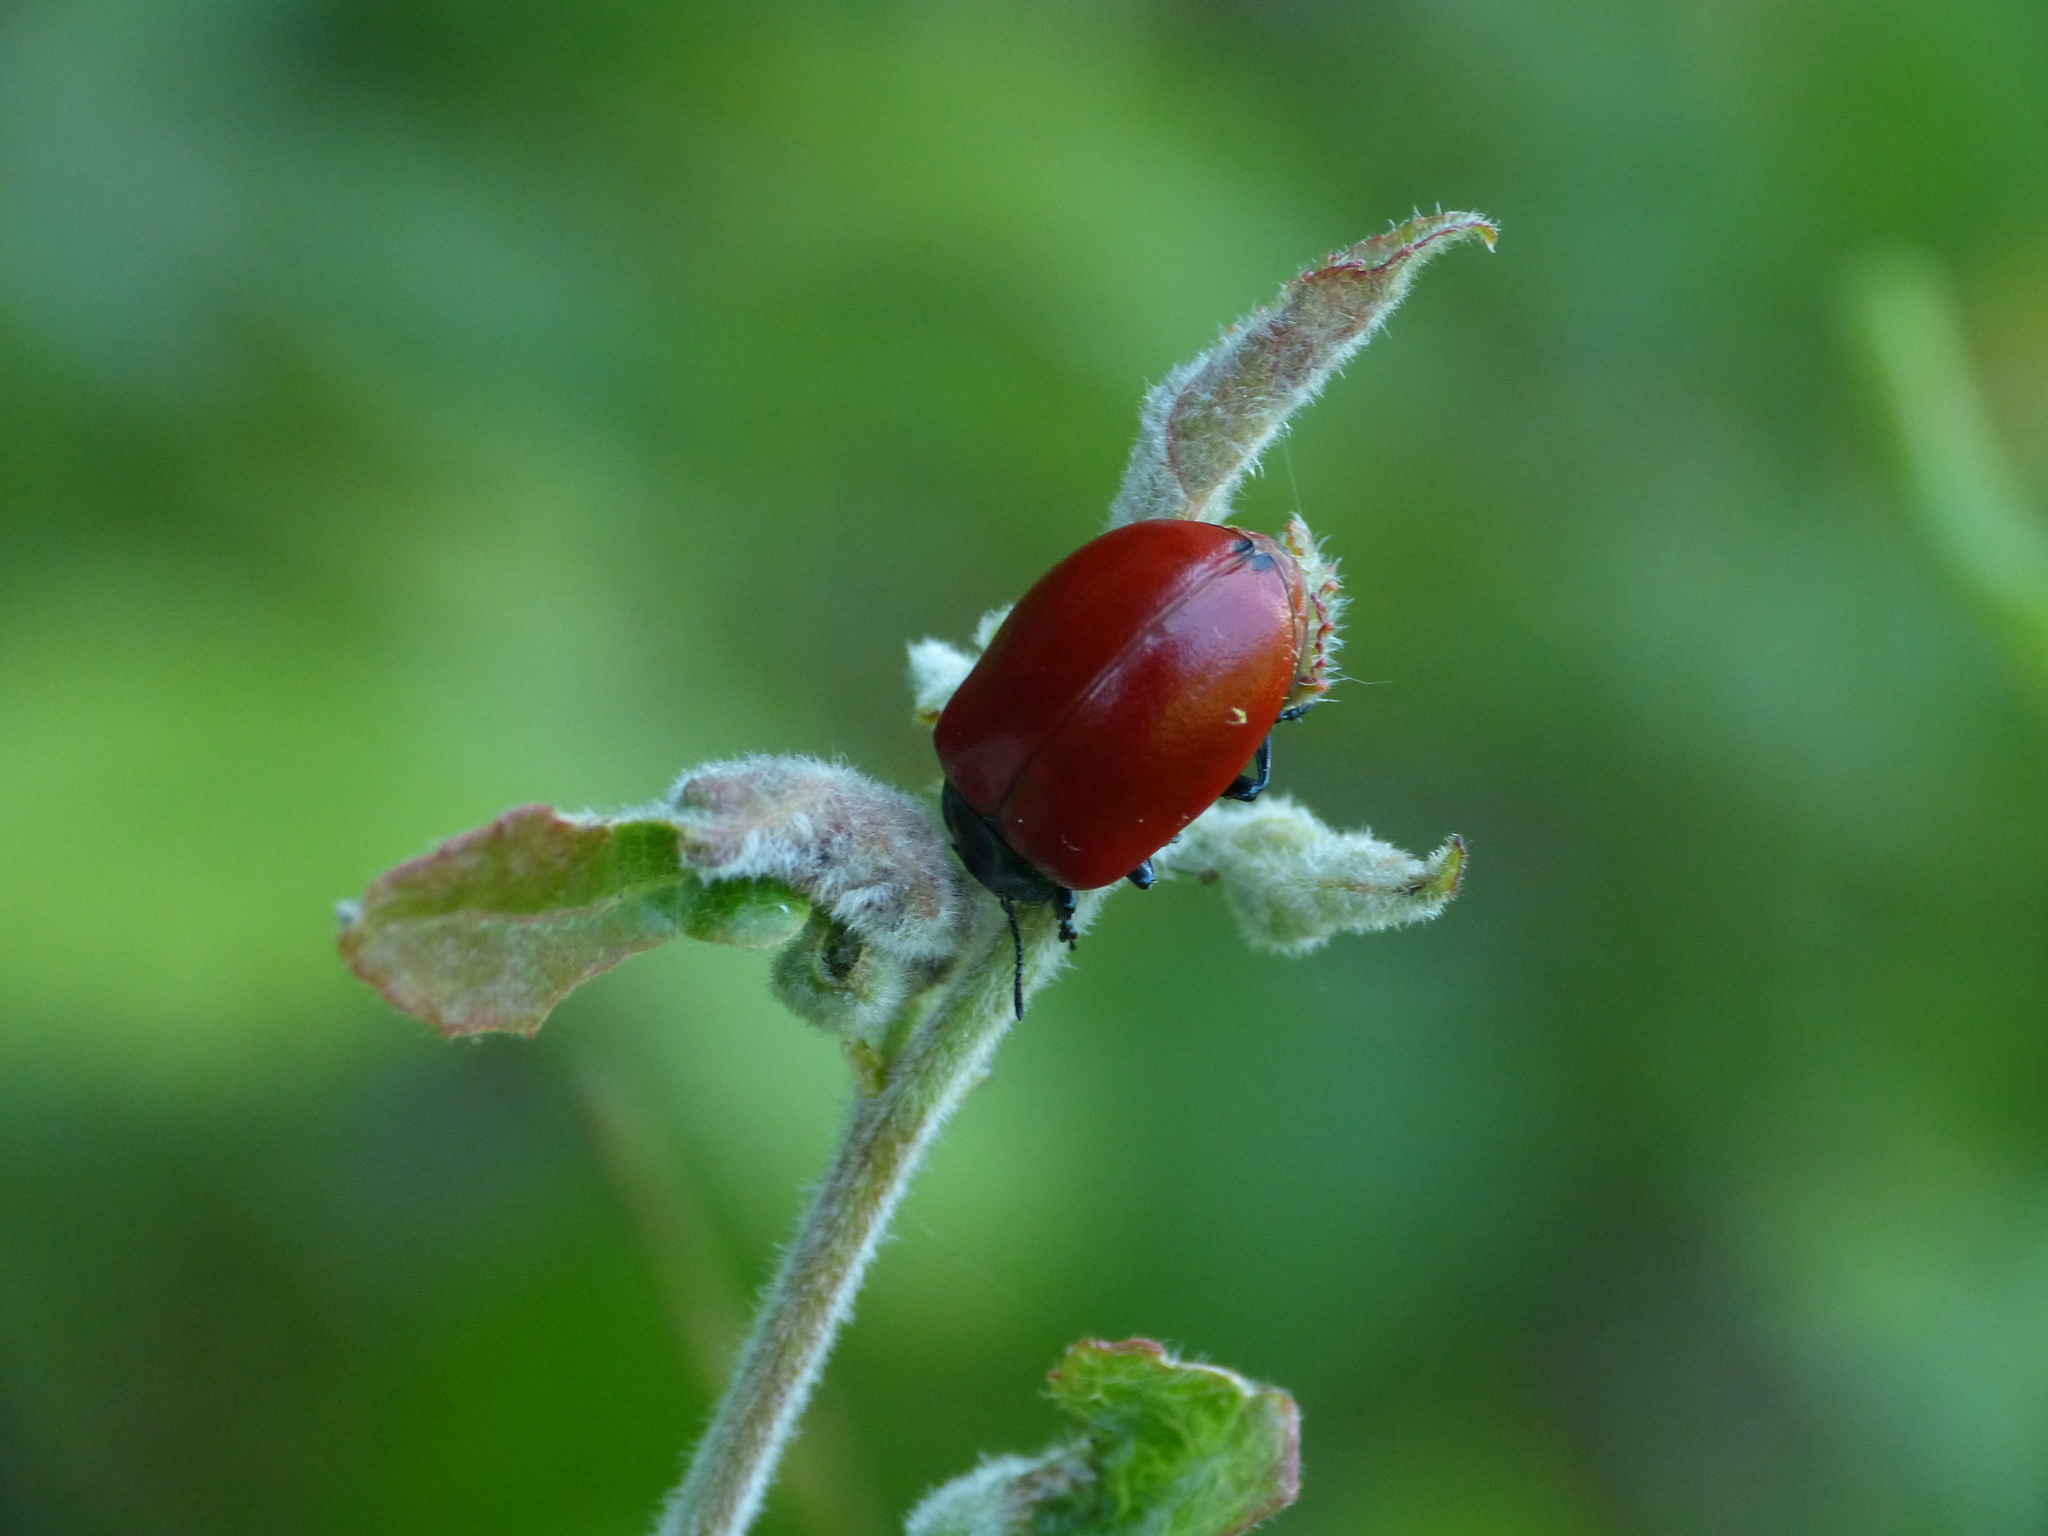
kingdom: Animalia
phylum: Arthropoda
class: Insecta
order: Coleoptera
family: Chrysomelidae
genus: Chrysomela
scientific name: Chrysomela populi
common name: Red poplar leaf beetle
